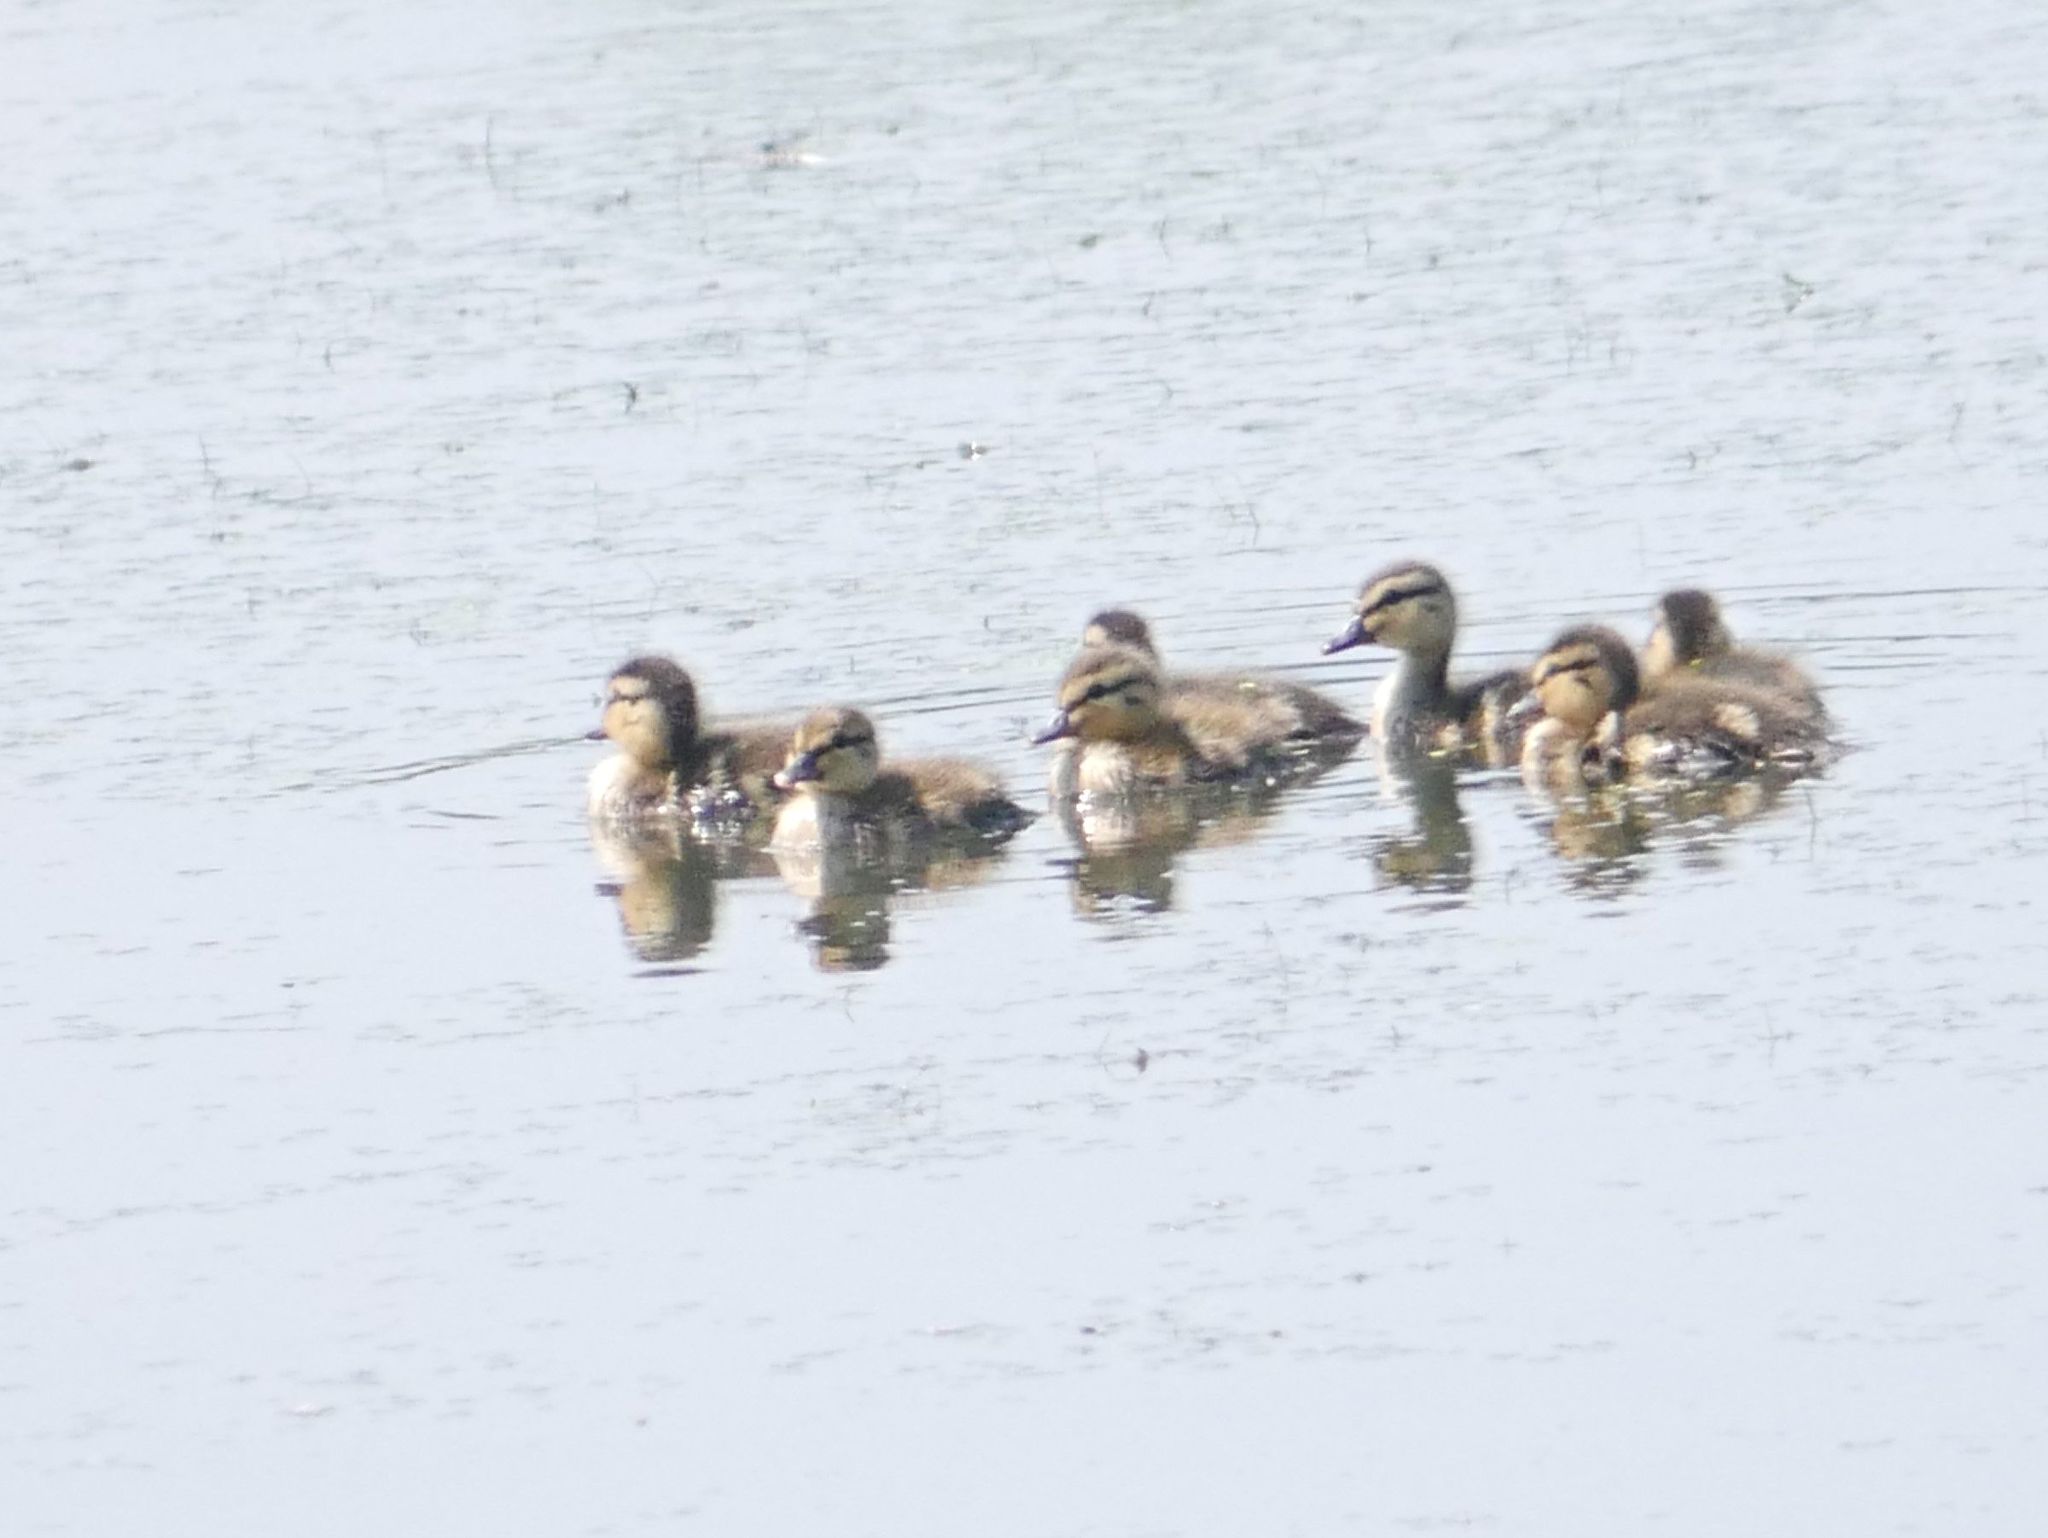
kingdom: Animalia
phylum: Chordata
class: Aves
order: Anseriformes
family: Anatidae
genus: Anas
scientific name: Anas platyrhynchos
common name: Mallard
